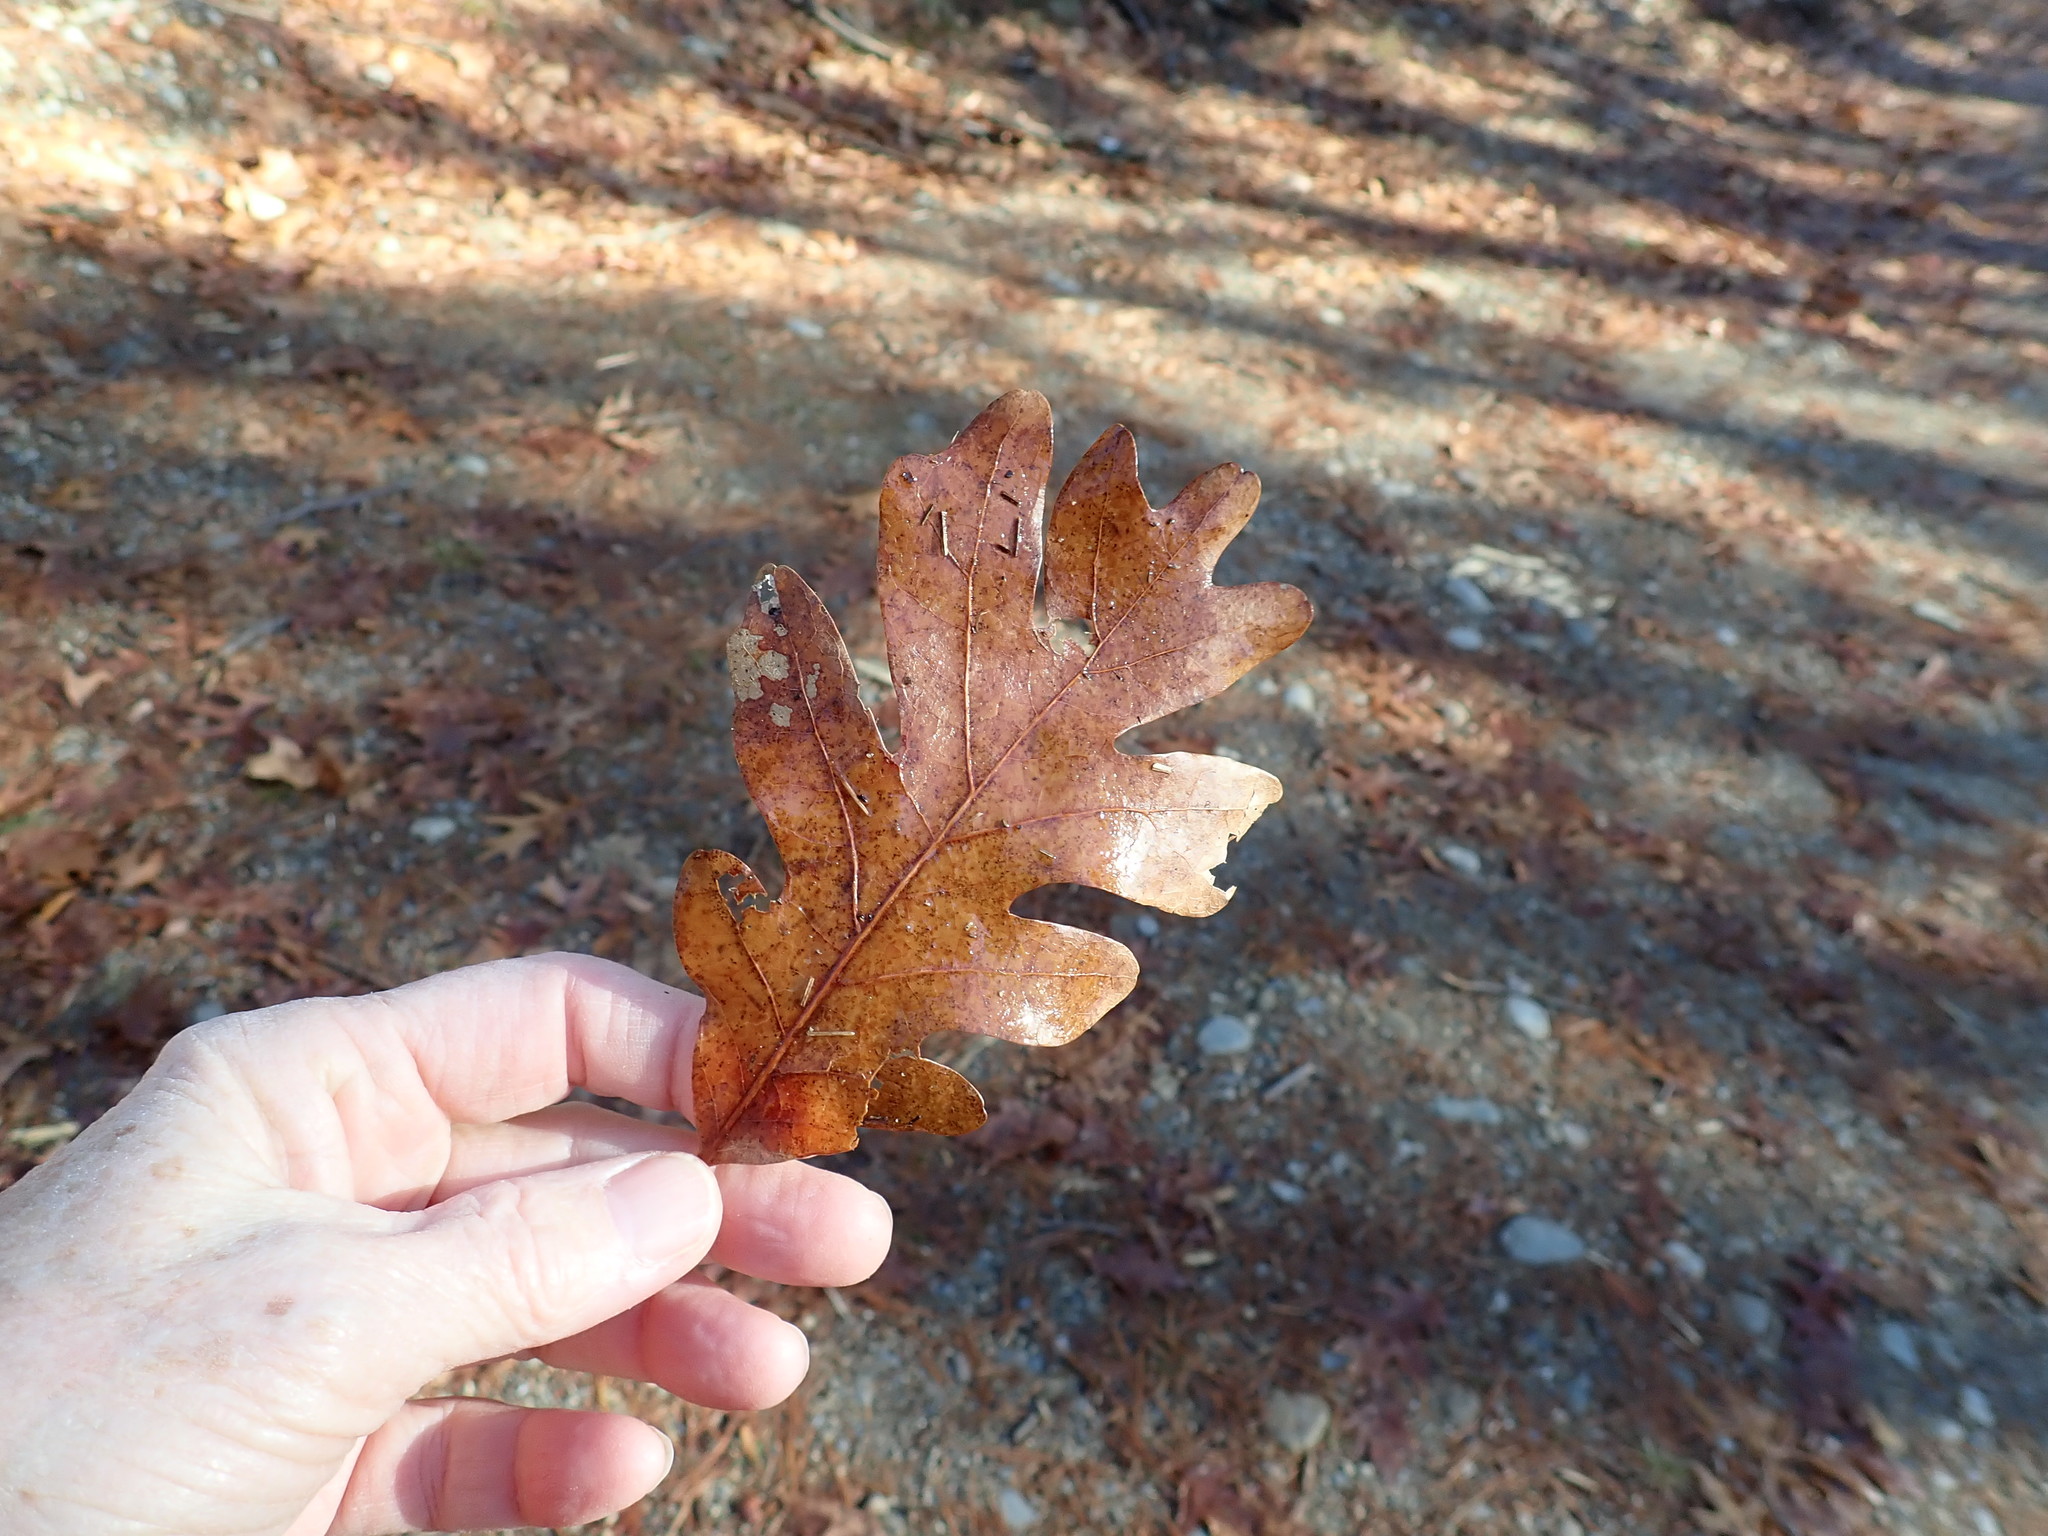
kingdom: Plantae
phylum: Tracheophyta
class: Magnoliopsida
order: Fagales
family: Fagaceae
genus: Quercus
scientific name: Quercus alba
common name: White oak
